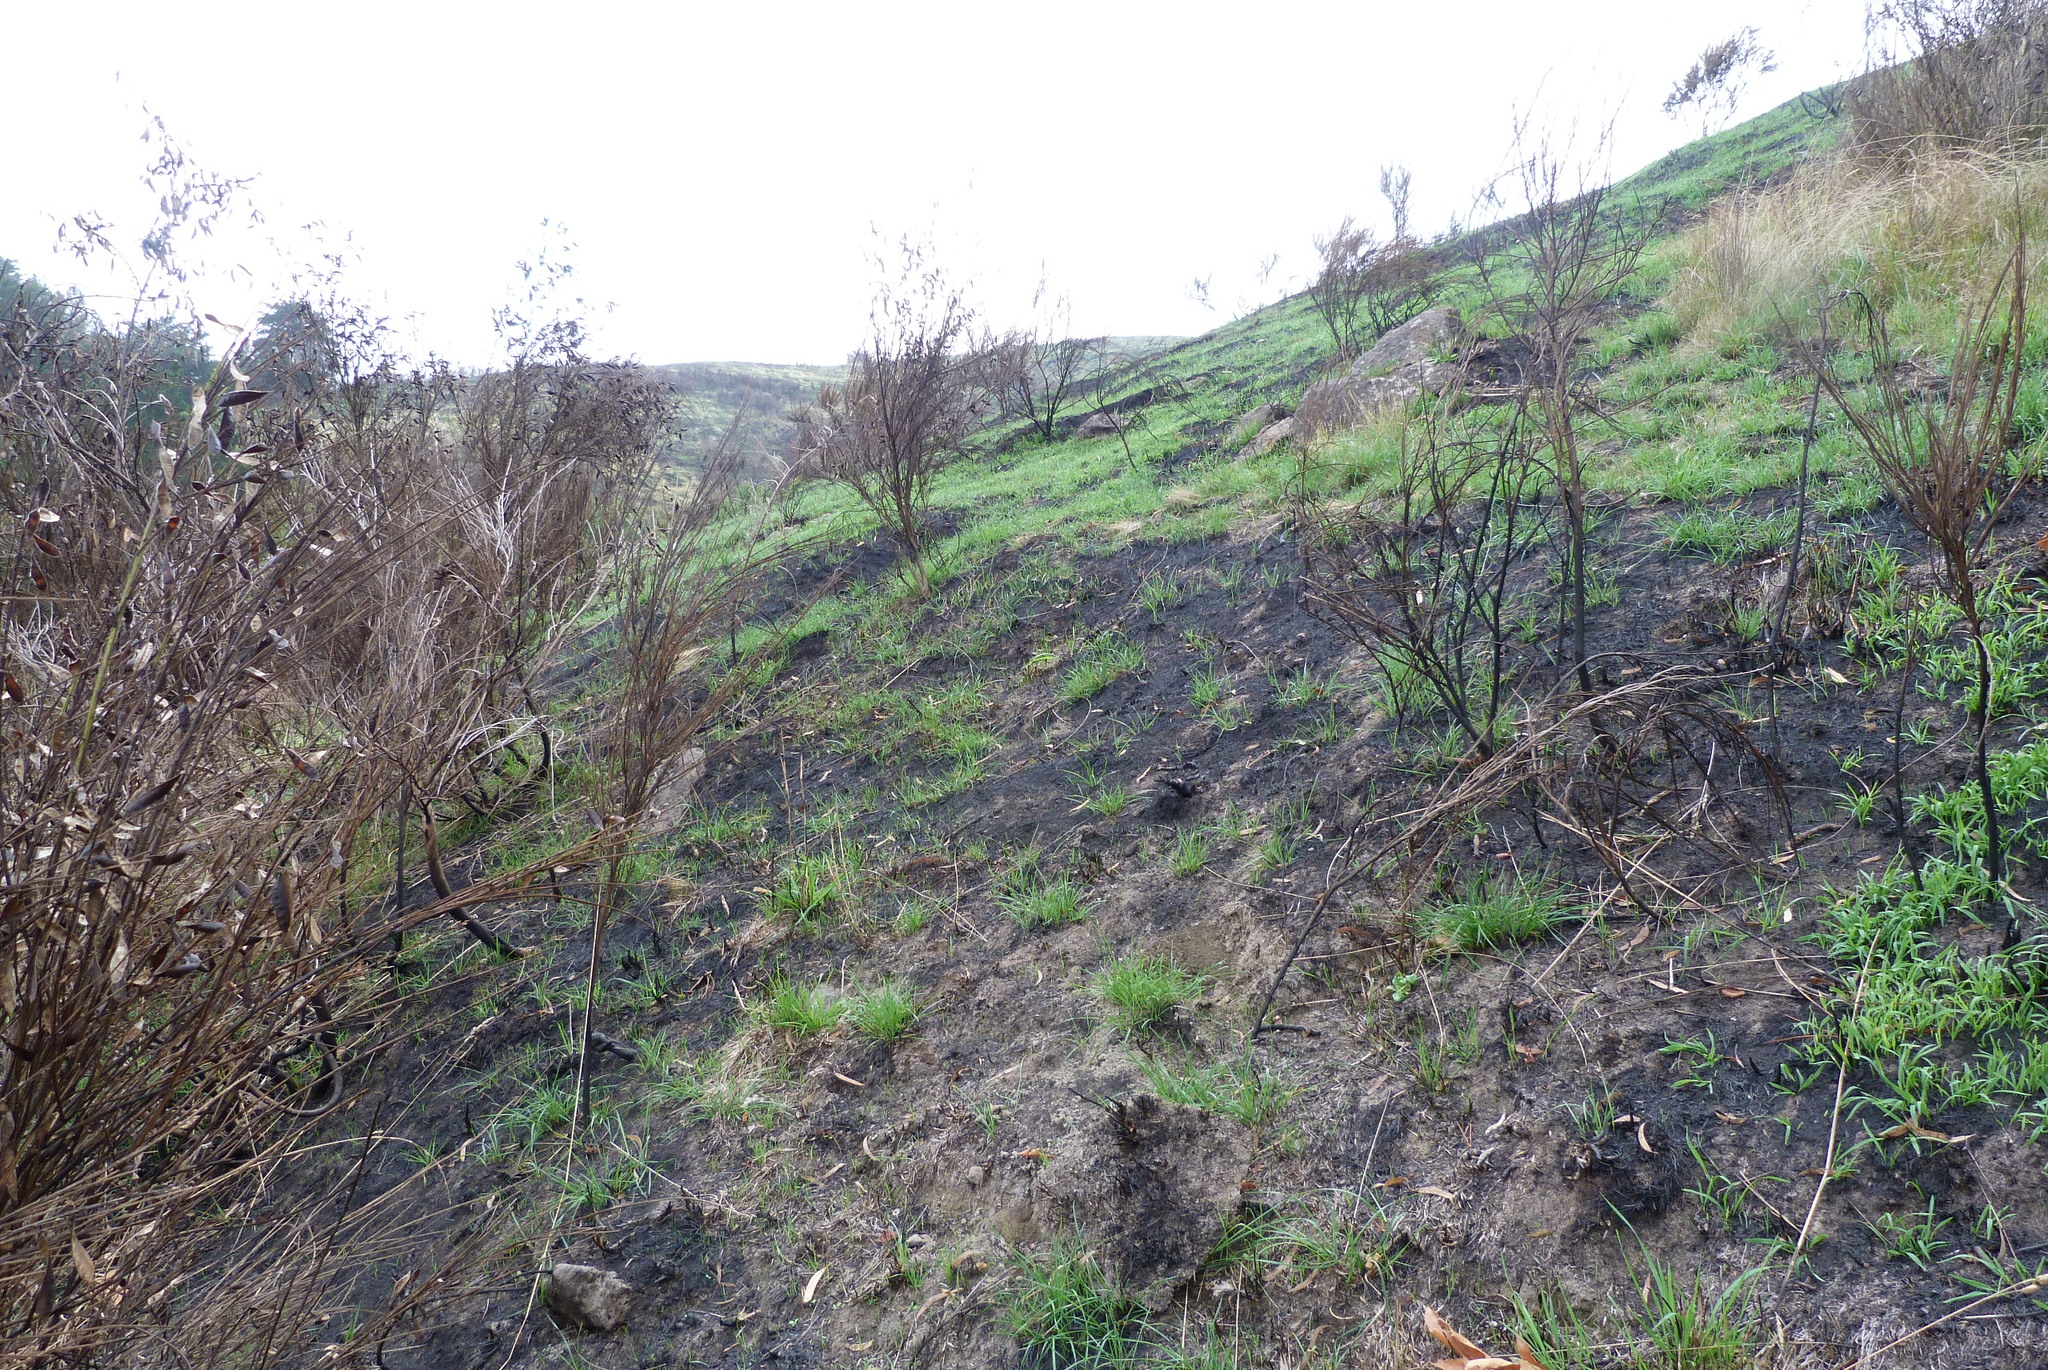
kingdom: Plantae
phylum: Tracheophyta
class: Magnoliopsida
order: Fabales
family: Fabaceae
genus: Cytisus
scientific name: Cytisus scoparius
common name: Scotch broom
